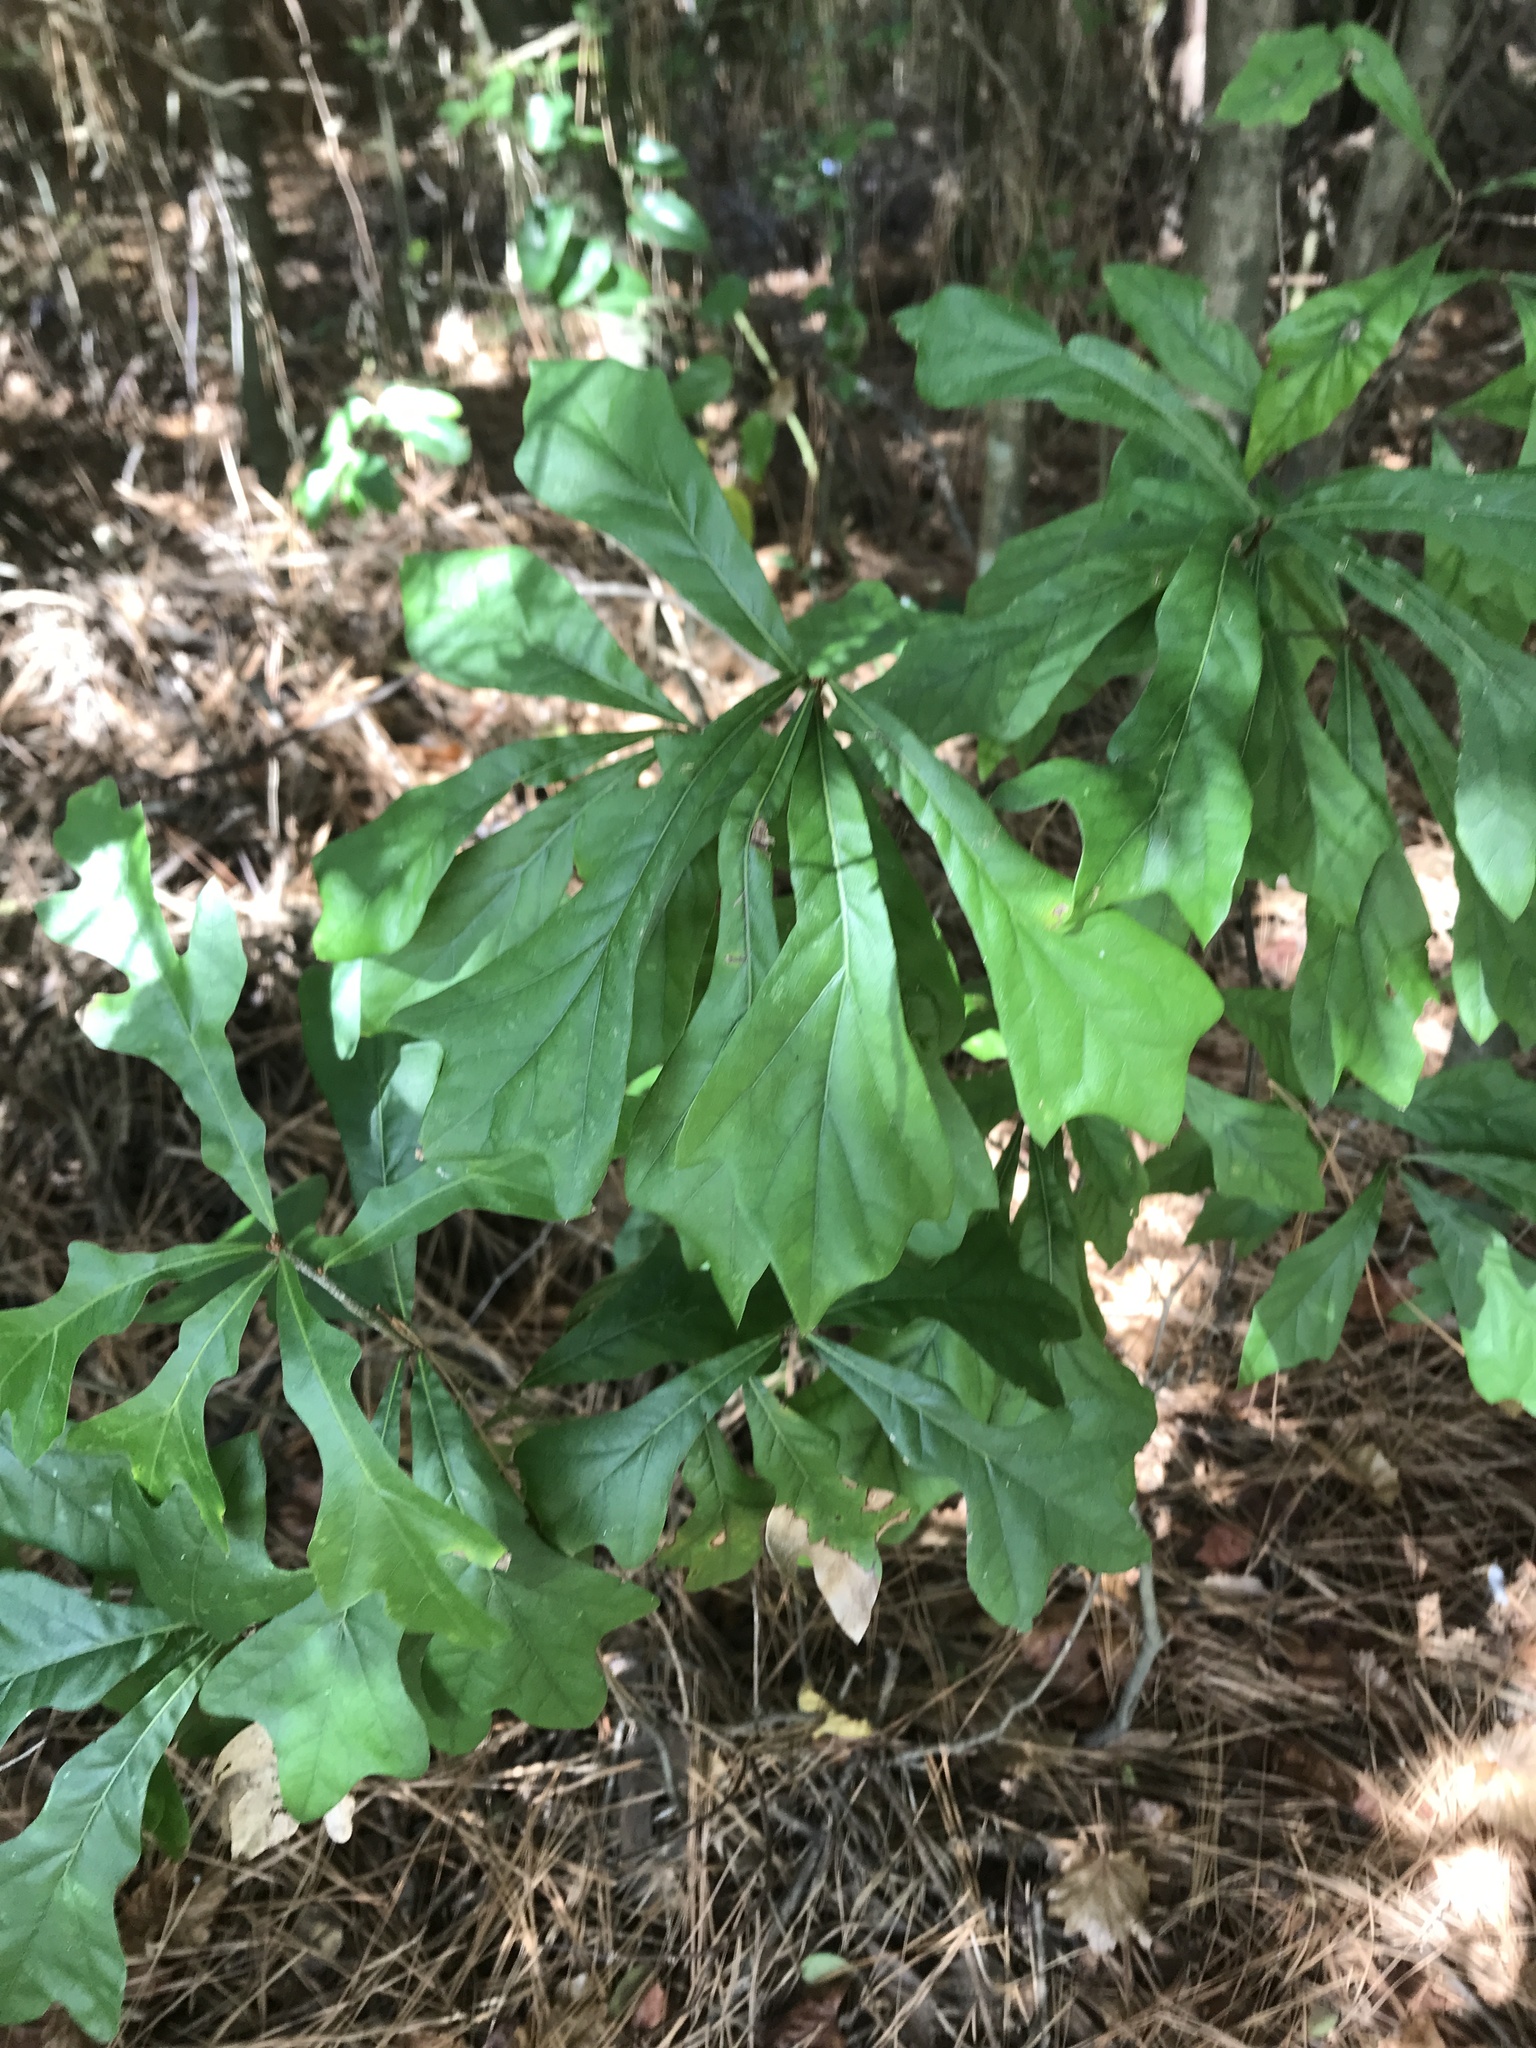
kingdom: Plantae
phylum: Tracheophyta
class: Magnoliopsida
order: Fagales
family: Fagaceae
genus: Quercus
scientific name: Quercus nigra
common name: Water oak
